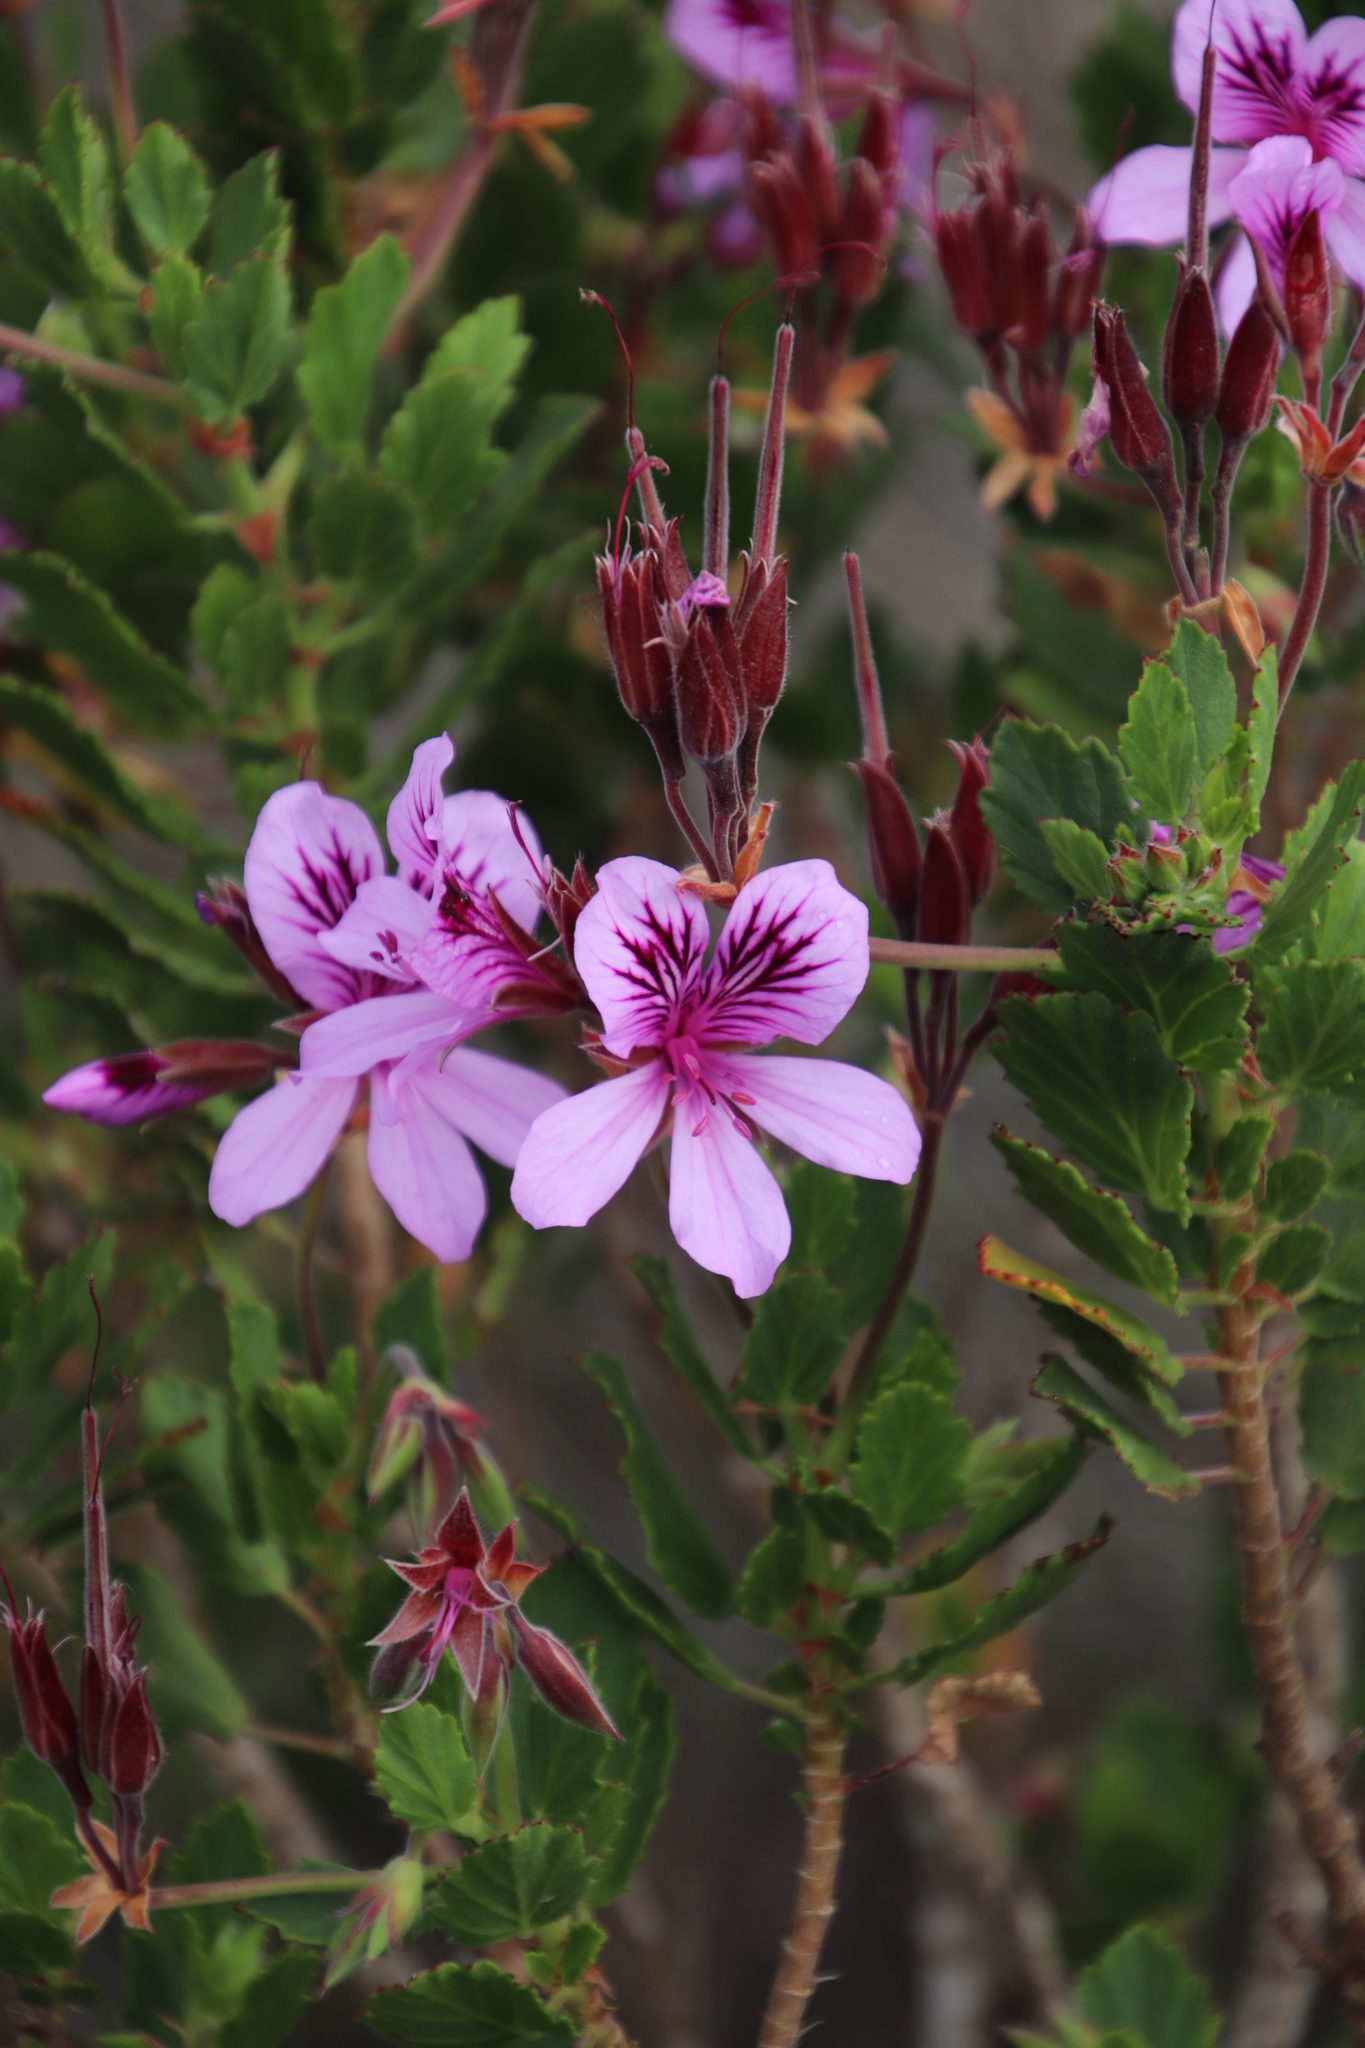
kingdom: Plantae
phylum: Tracheophyta
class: Magnoliopsida
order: Geraniales
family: Geraniaceae
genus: Pelargonium
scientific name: Pelargonium betulinum
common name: Birch-leaf pelargonium
